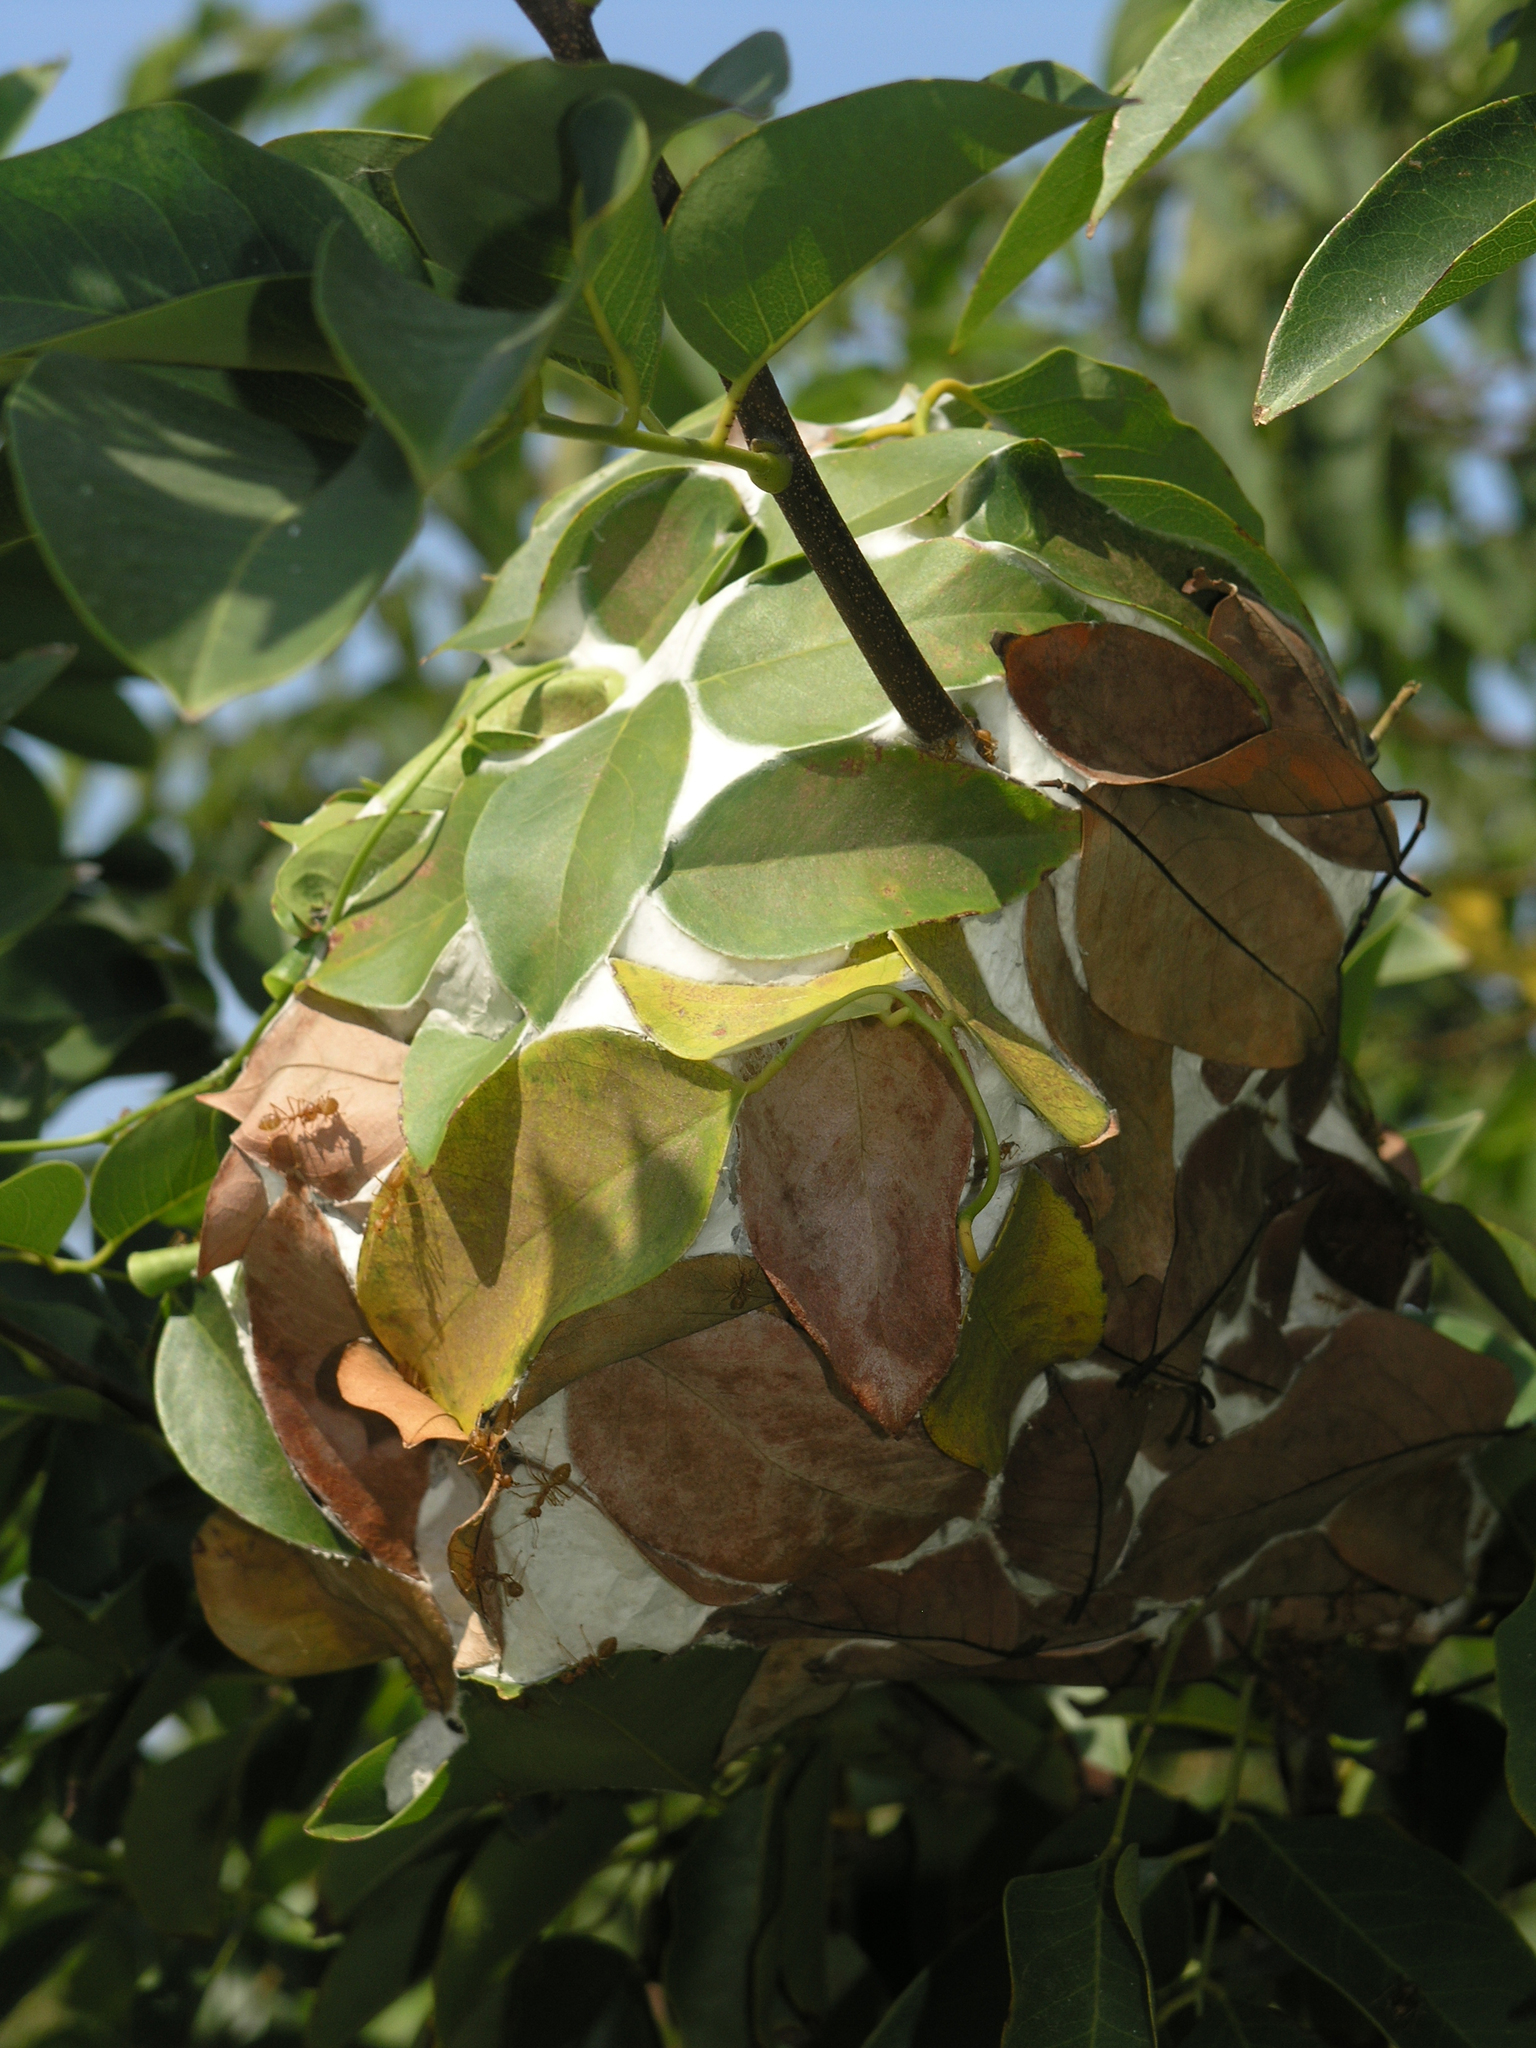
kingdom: Animalia
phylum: Arthropoda
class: Insecta
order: Hymenoptera
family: Formicidae
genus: Oecophylla
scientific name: Oecophylla smaragdina
